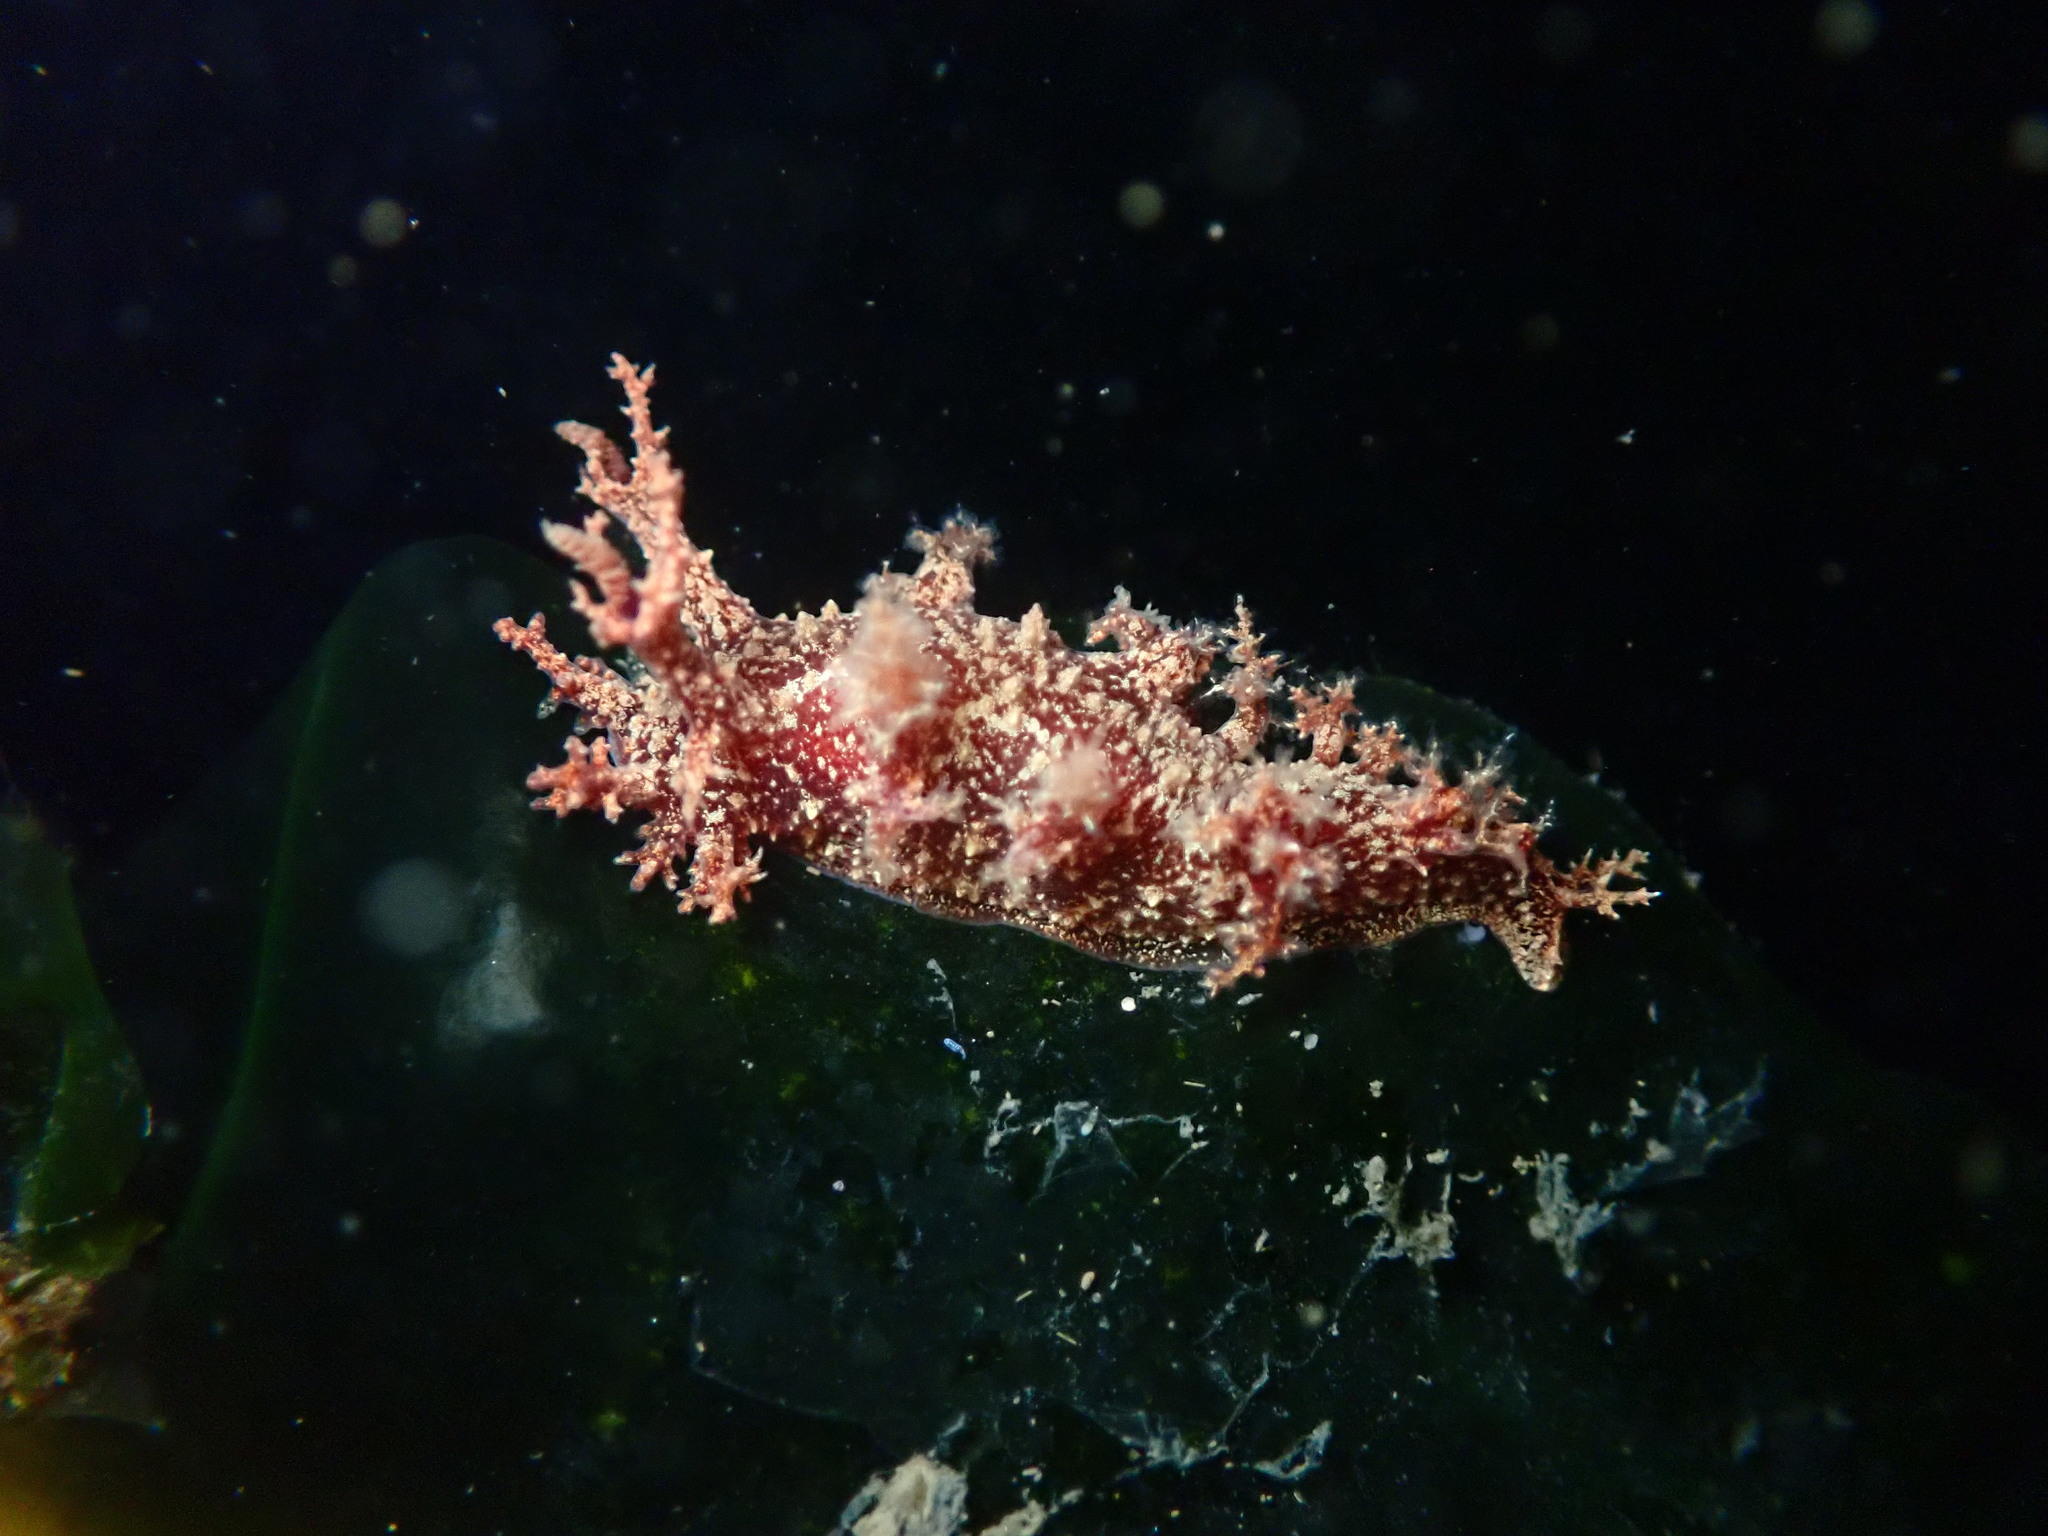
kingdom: Animalia
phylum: Mollusca
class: Gastropoda
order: Nudibranchia
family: Dendronotidae
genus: Dendronotus
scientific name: Dendronotus venustus
